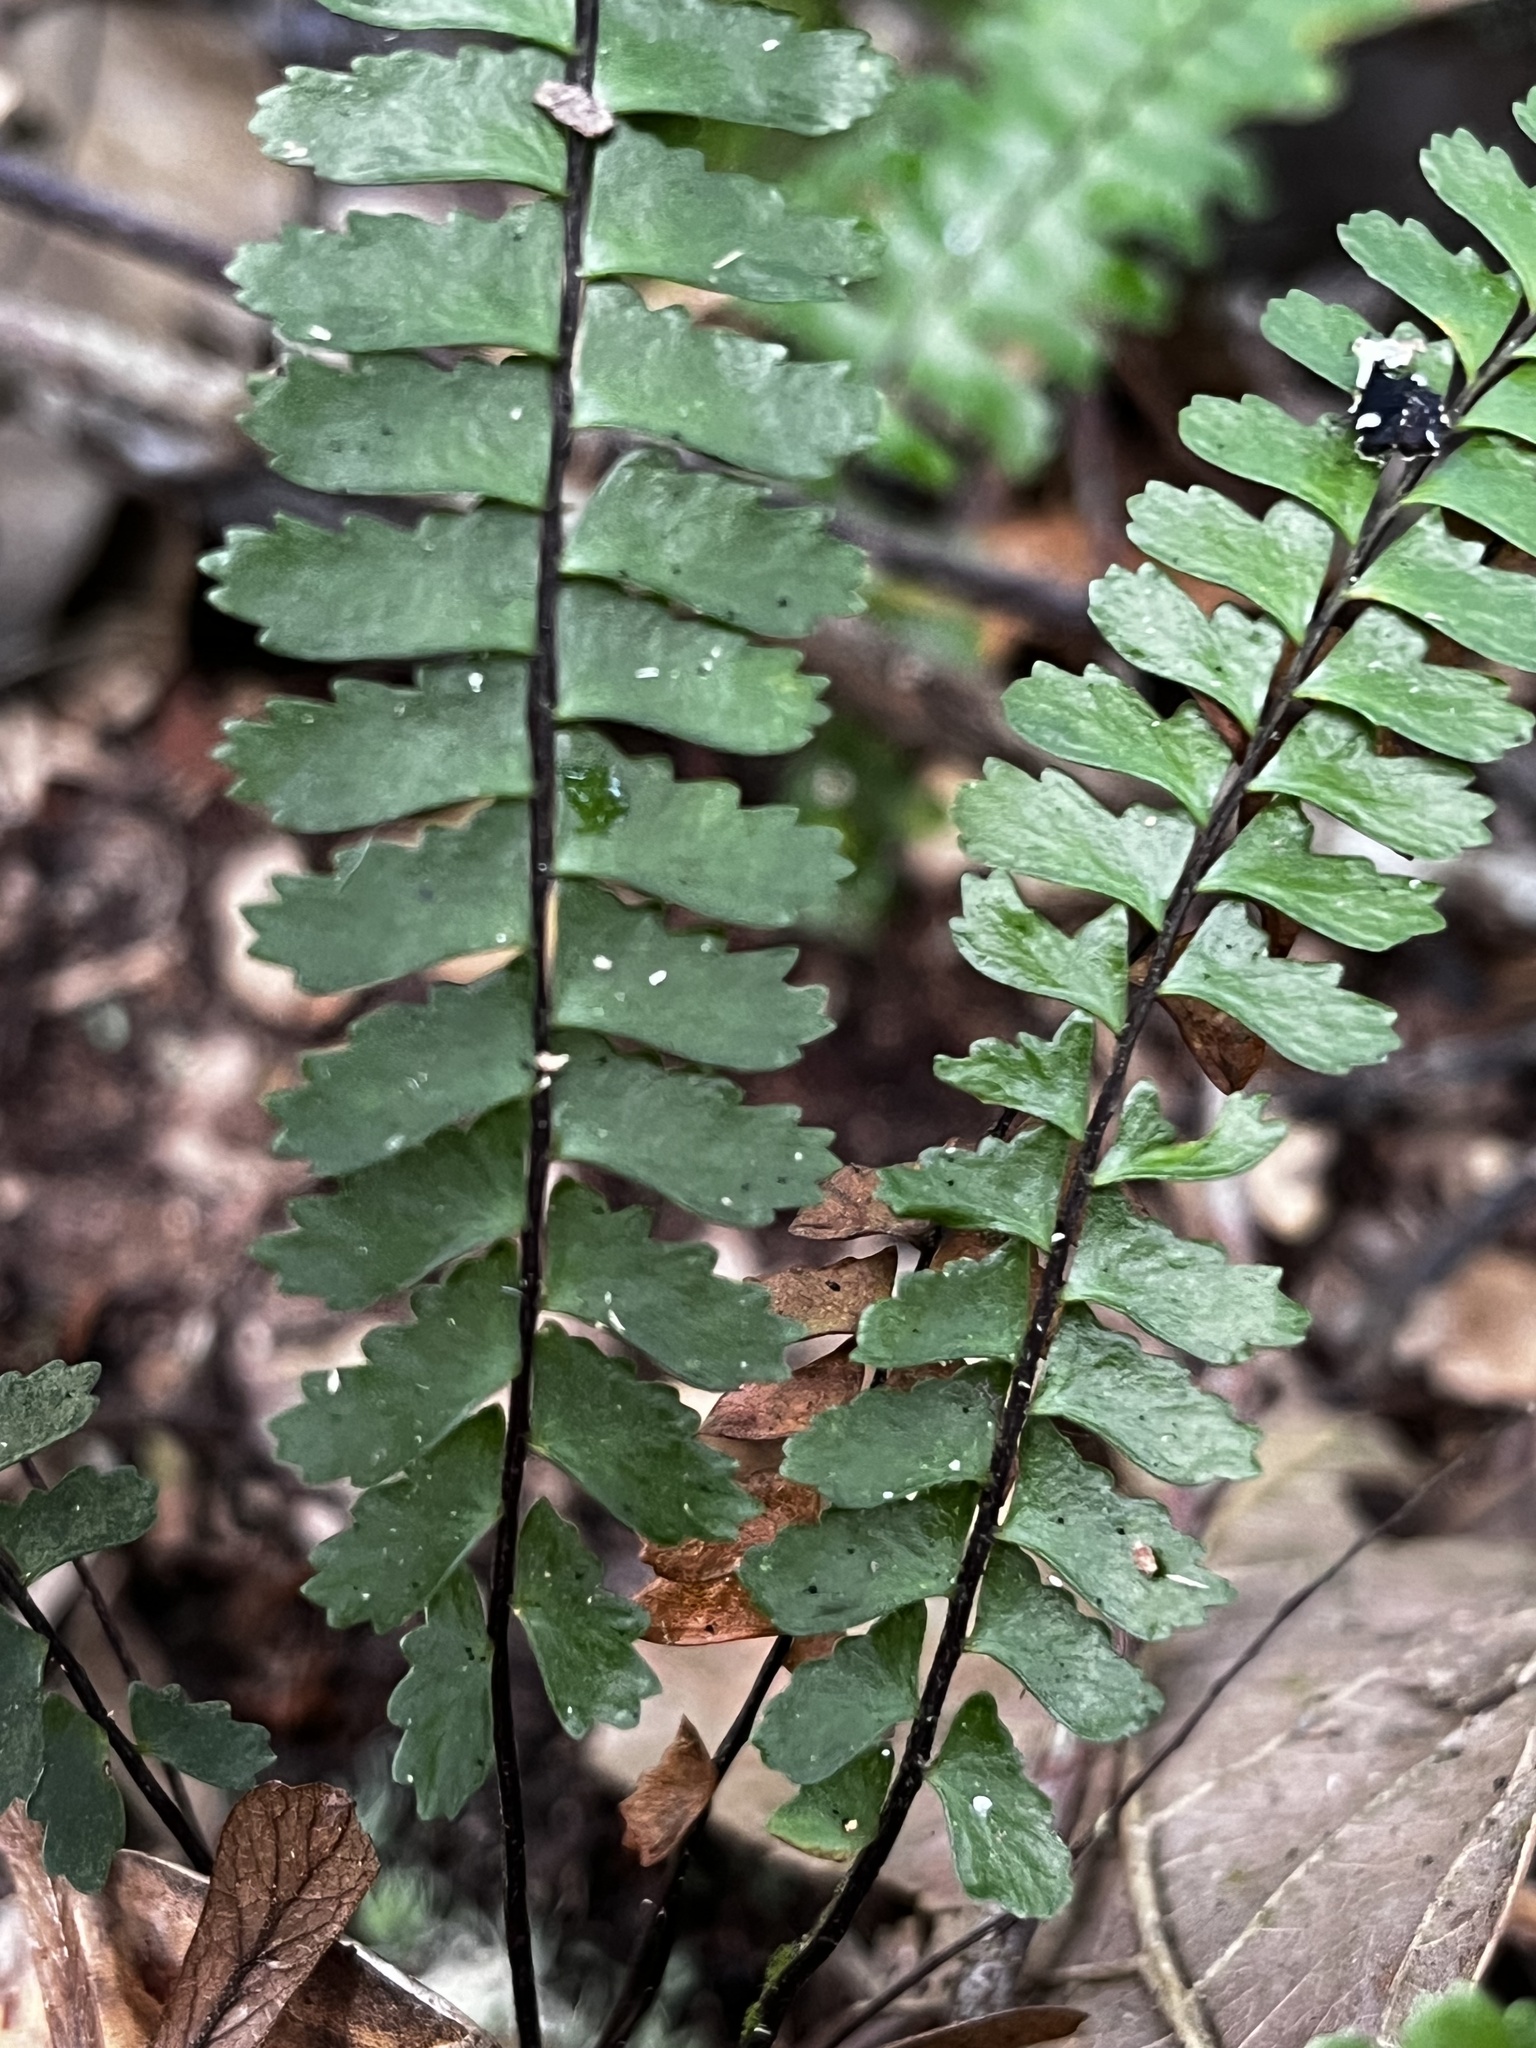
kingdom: Plantae
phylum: Tracheophyta
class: Polypodiopsida
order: Polypodiales
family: Aspleniaceae
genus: Asplenium
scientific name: Asplenium normale
